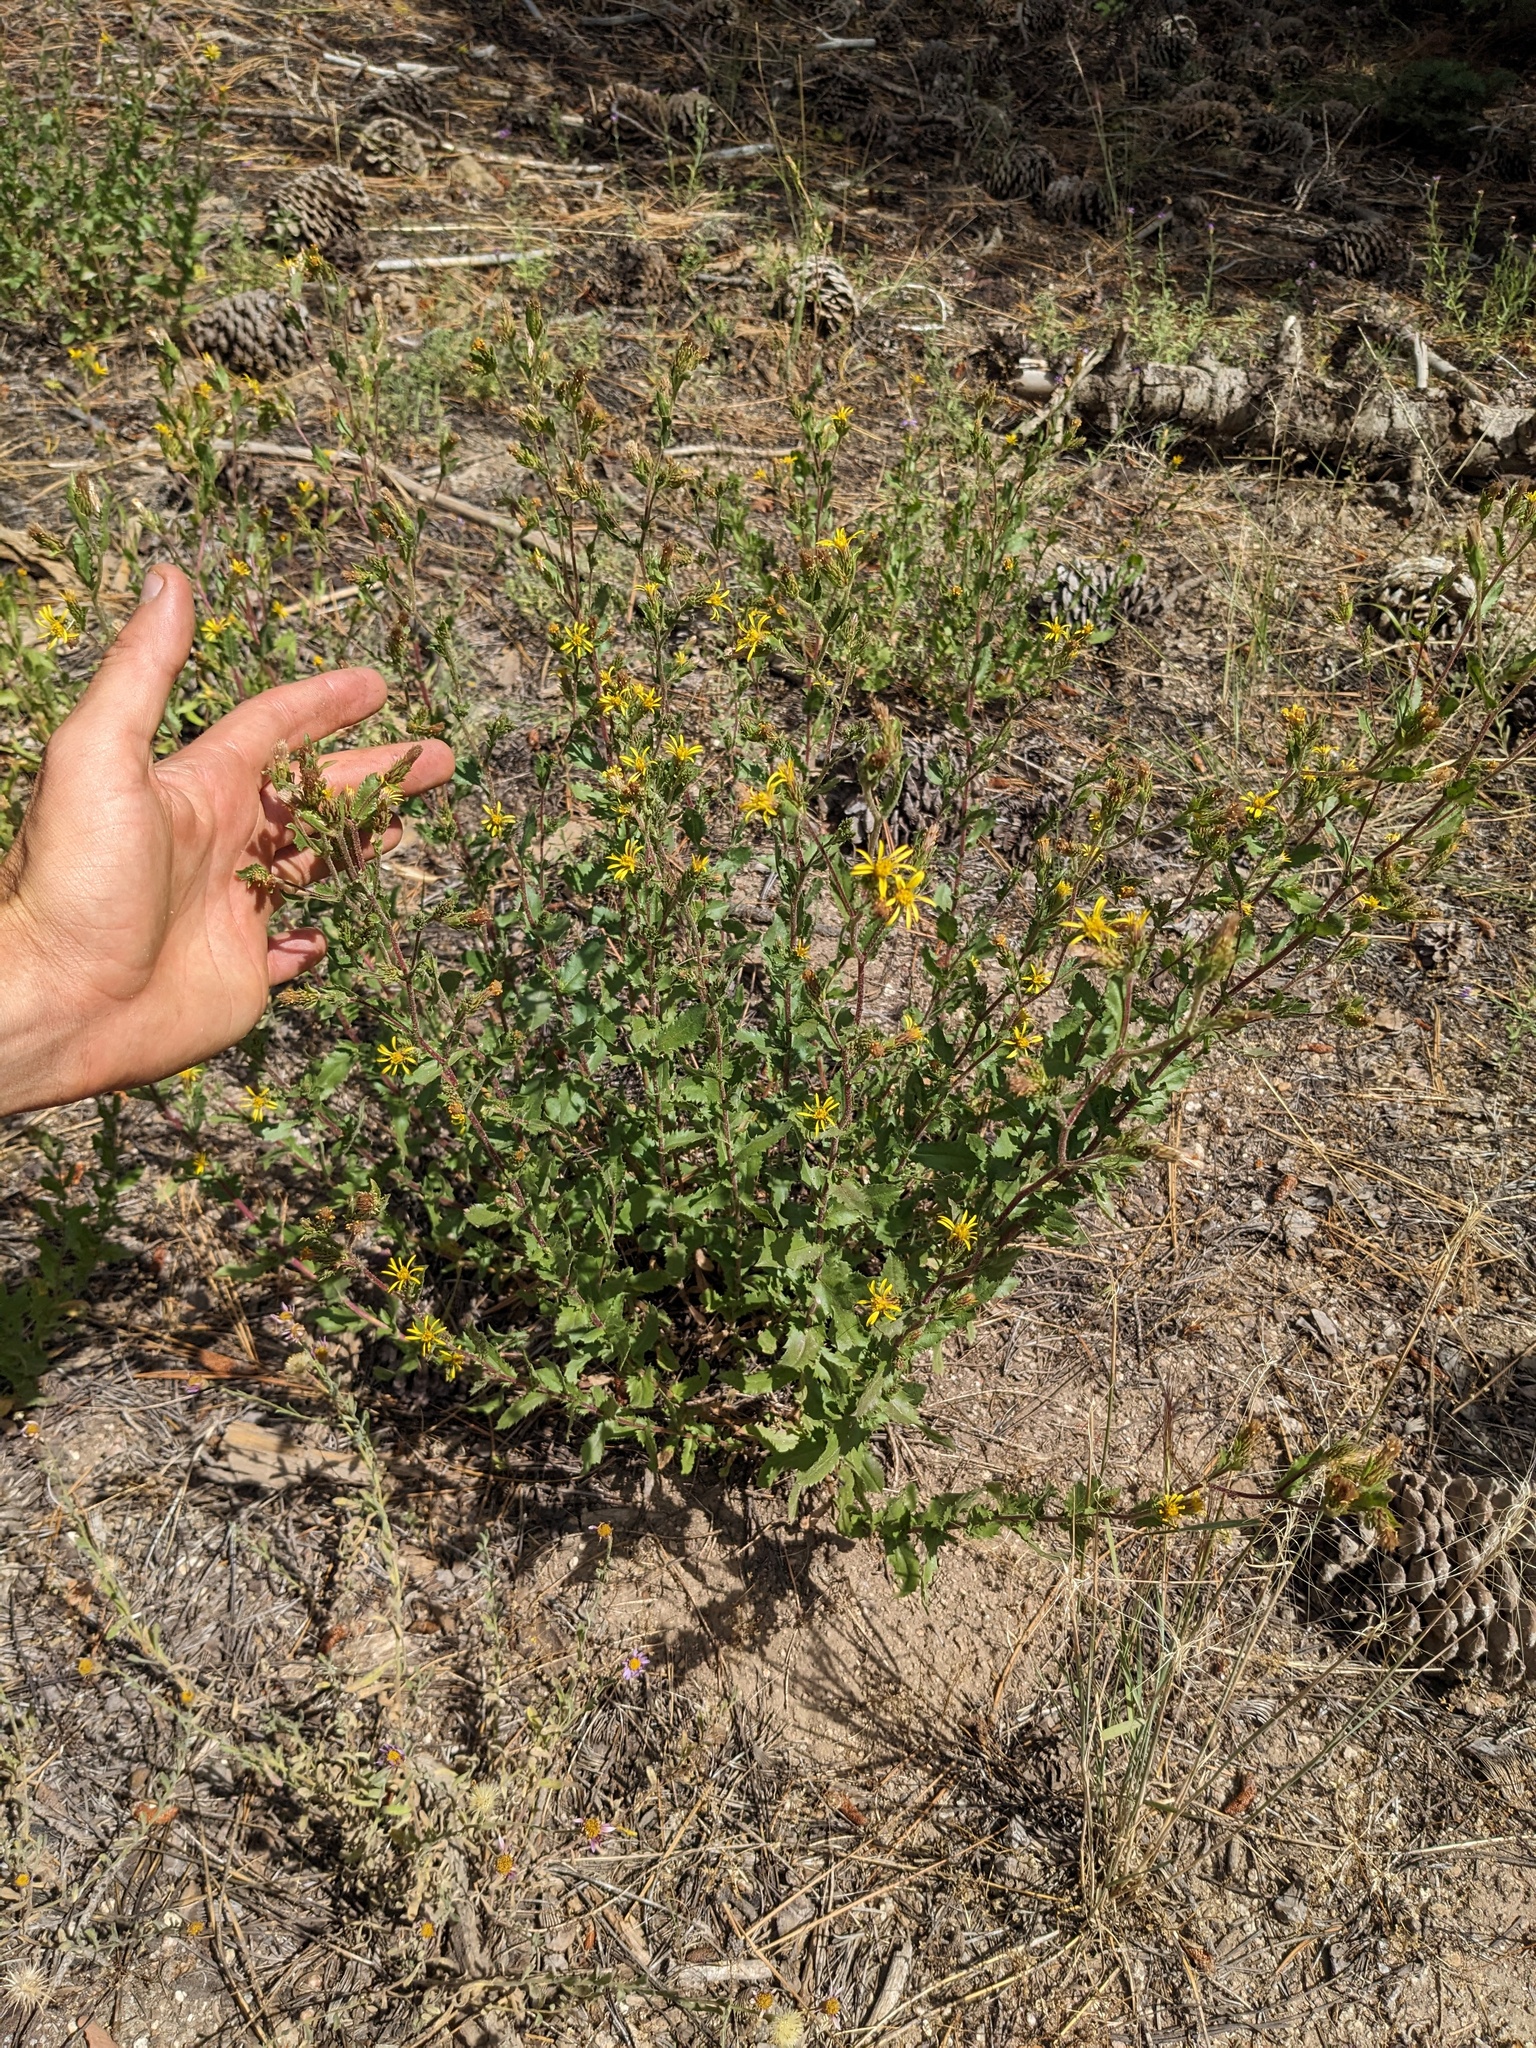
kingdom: Plantae
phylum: Tracheophyta
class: Magnoliopsida
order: Asterales
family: Asteraceae
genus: Adeia
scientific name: Adeia whitneyi
